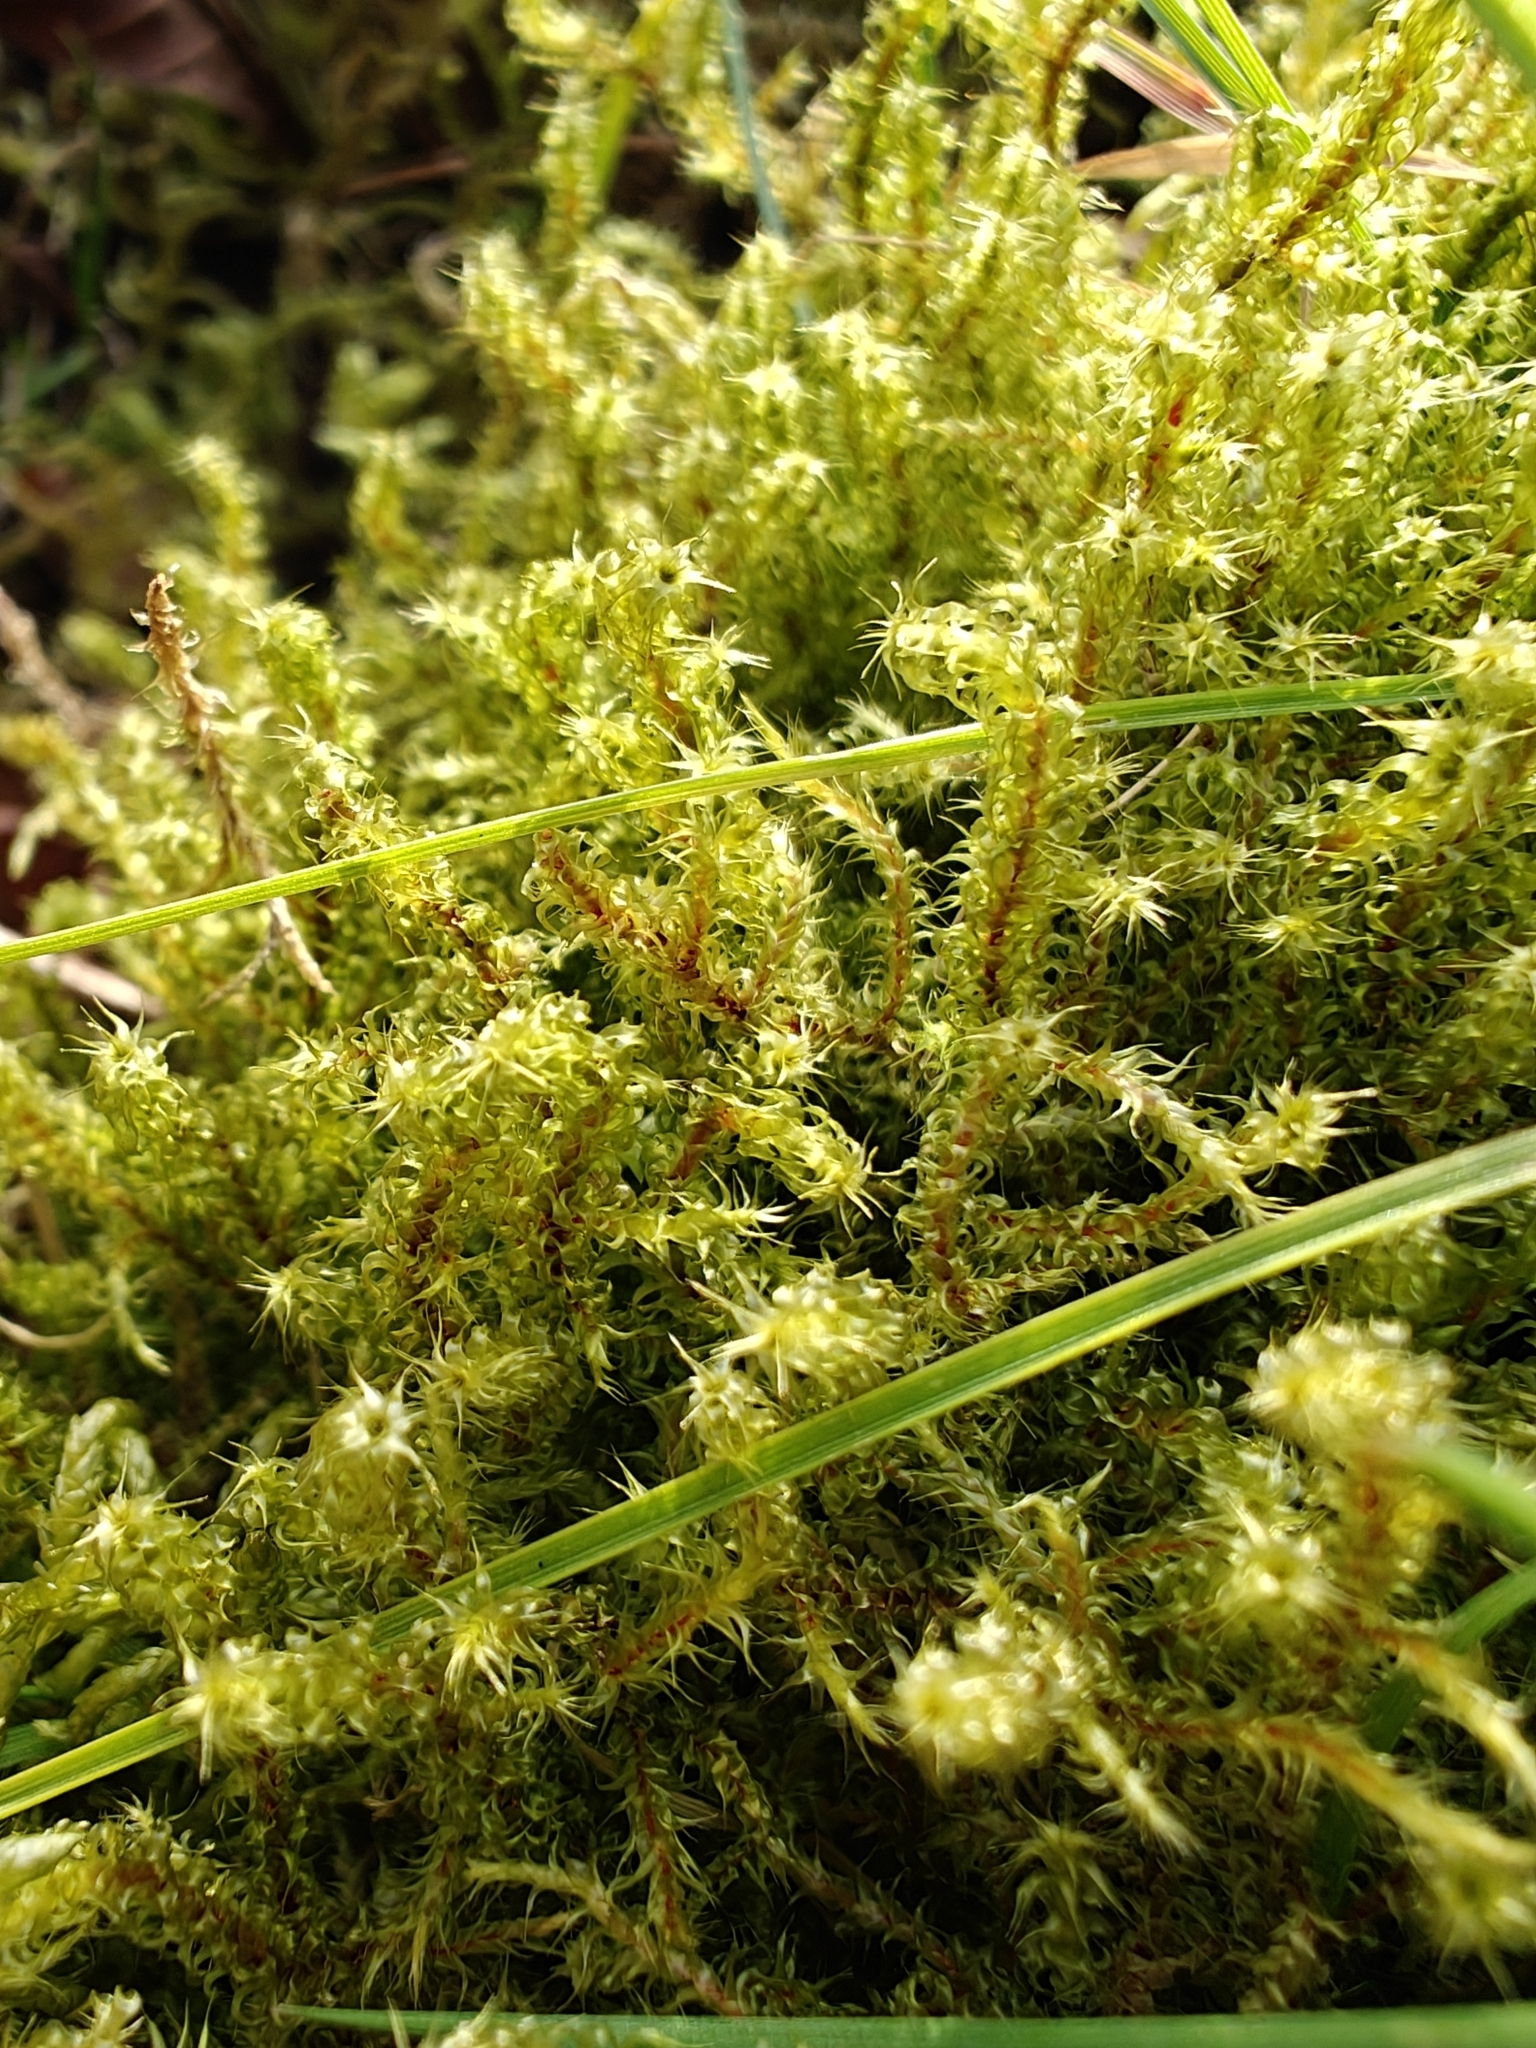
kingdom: Plantae
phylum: Bryophyta
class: Bryopsida
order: Hypnales
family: Hylocomiaceae
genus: Rhytidiadelphus
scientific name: Rhytidiadelphus squarrosus
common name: Springy turf-moss
